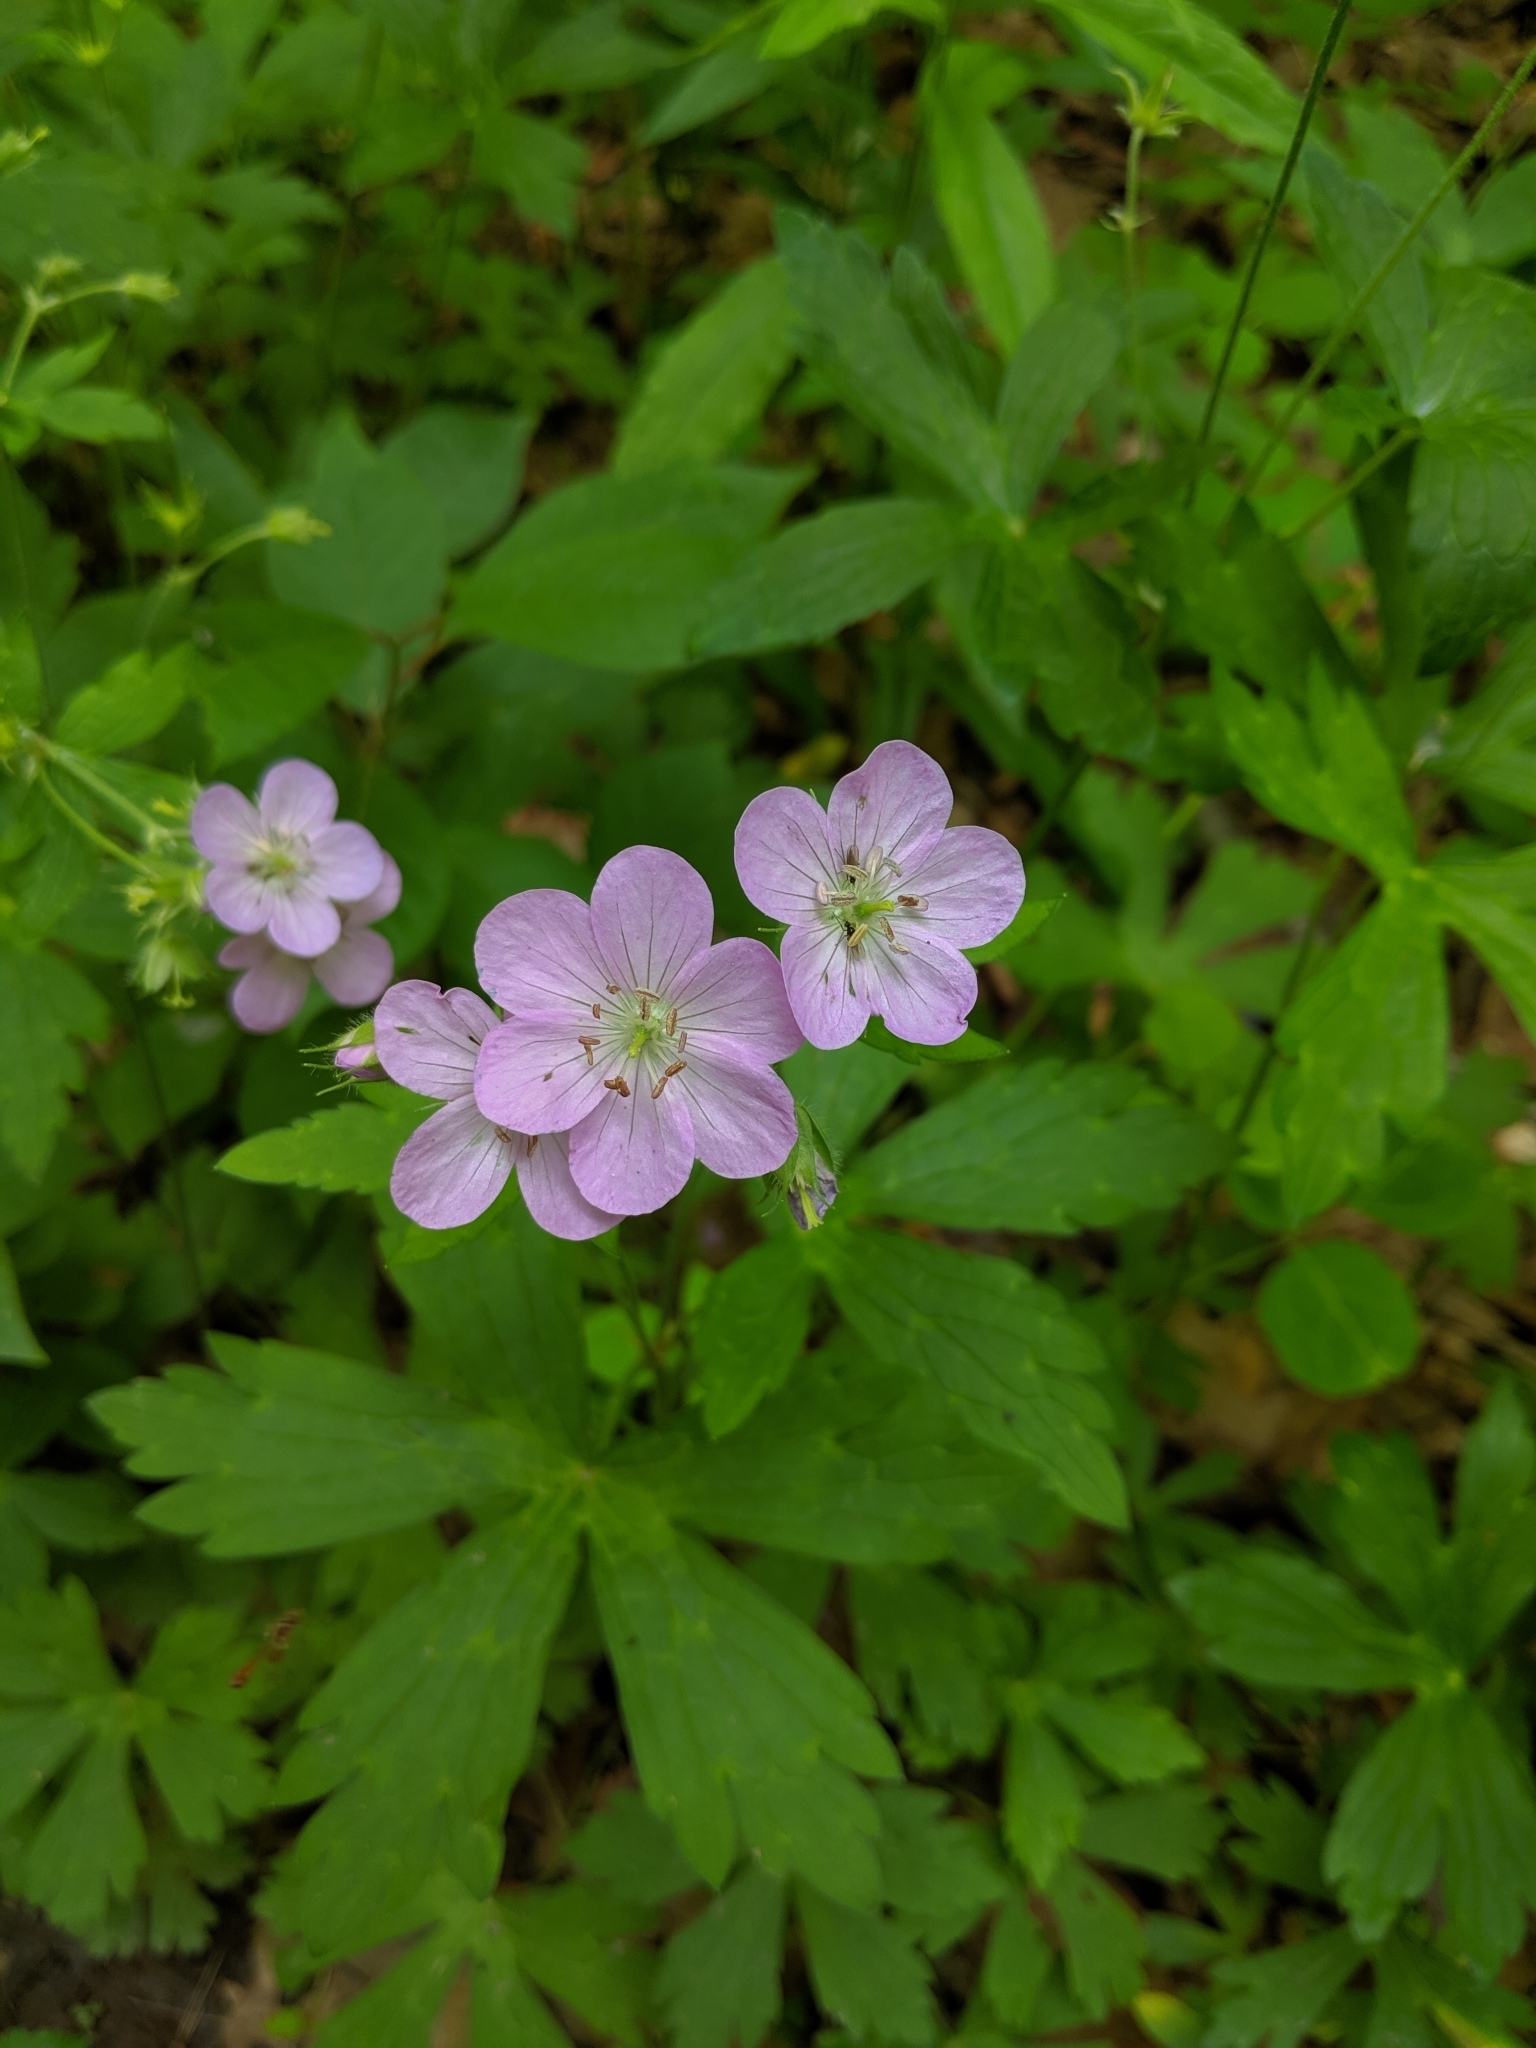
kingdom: Plantae
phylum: Tracheophyta
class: Magnoliopsida
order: Geraniales
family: Geraniaceae
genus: Geranium
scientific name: Geranium maculatum
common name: Spotted geranium
